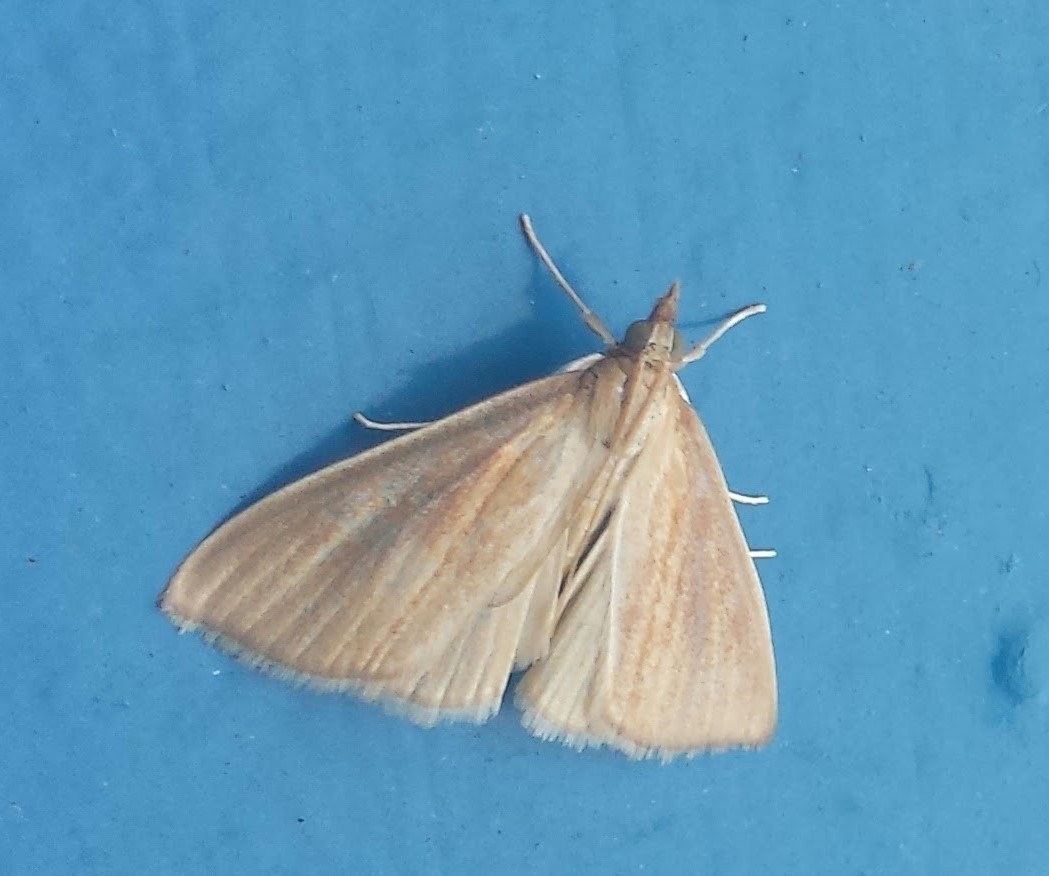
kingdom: Animalia
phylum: Arthropoda
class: Insecta
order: Lepidoptera
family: Crambidae
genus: Nascia
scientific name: Nascia acutellus
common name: Streaked orange moth
